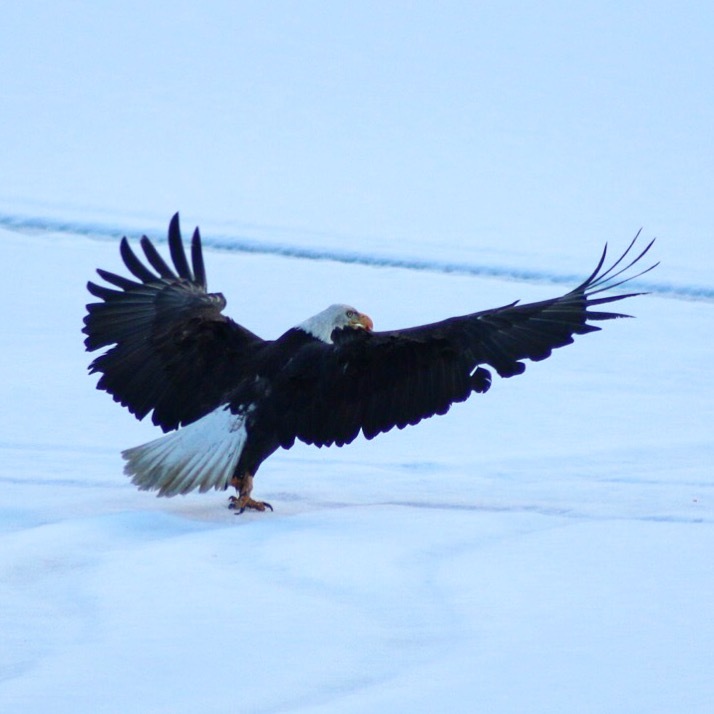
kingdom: Animalia
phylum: Chordata
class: Aves
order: Accipitriformes
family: Accipitridae
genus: Haliaeetus
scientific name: Haliaeetus leucocephalus
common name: Bald eagle
